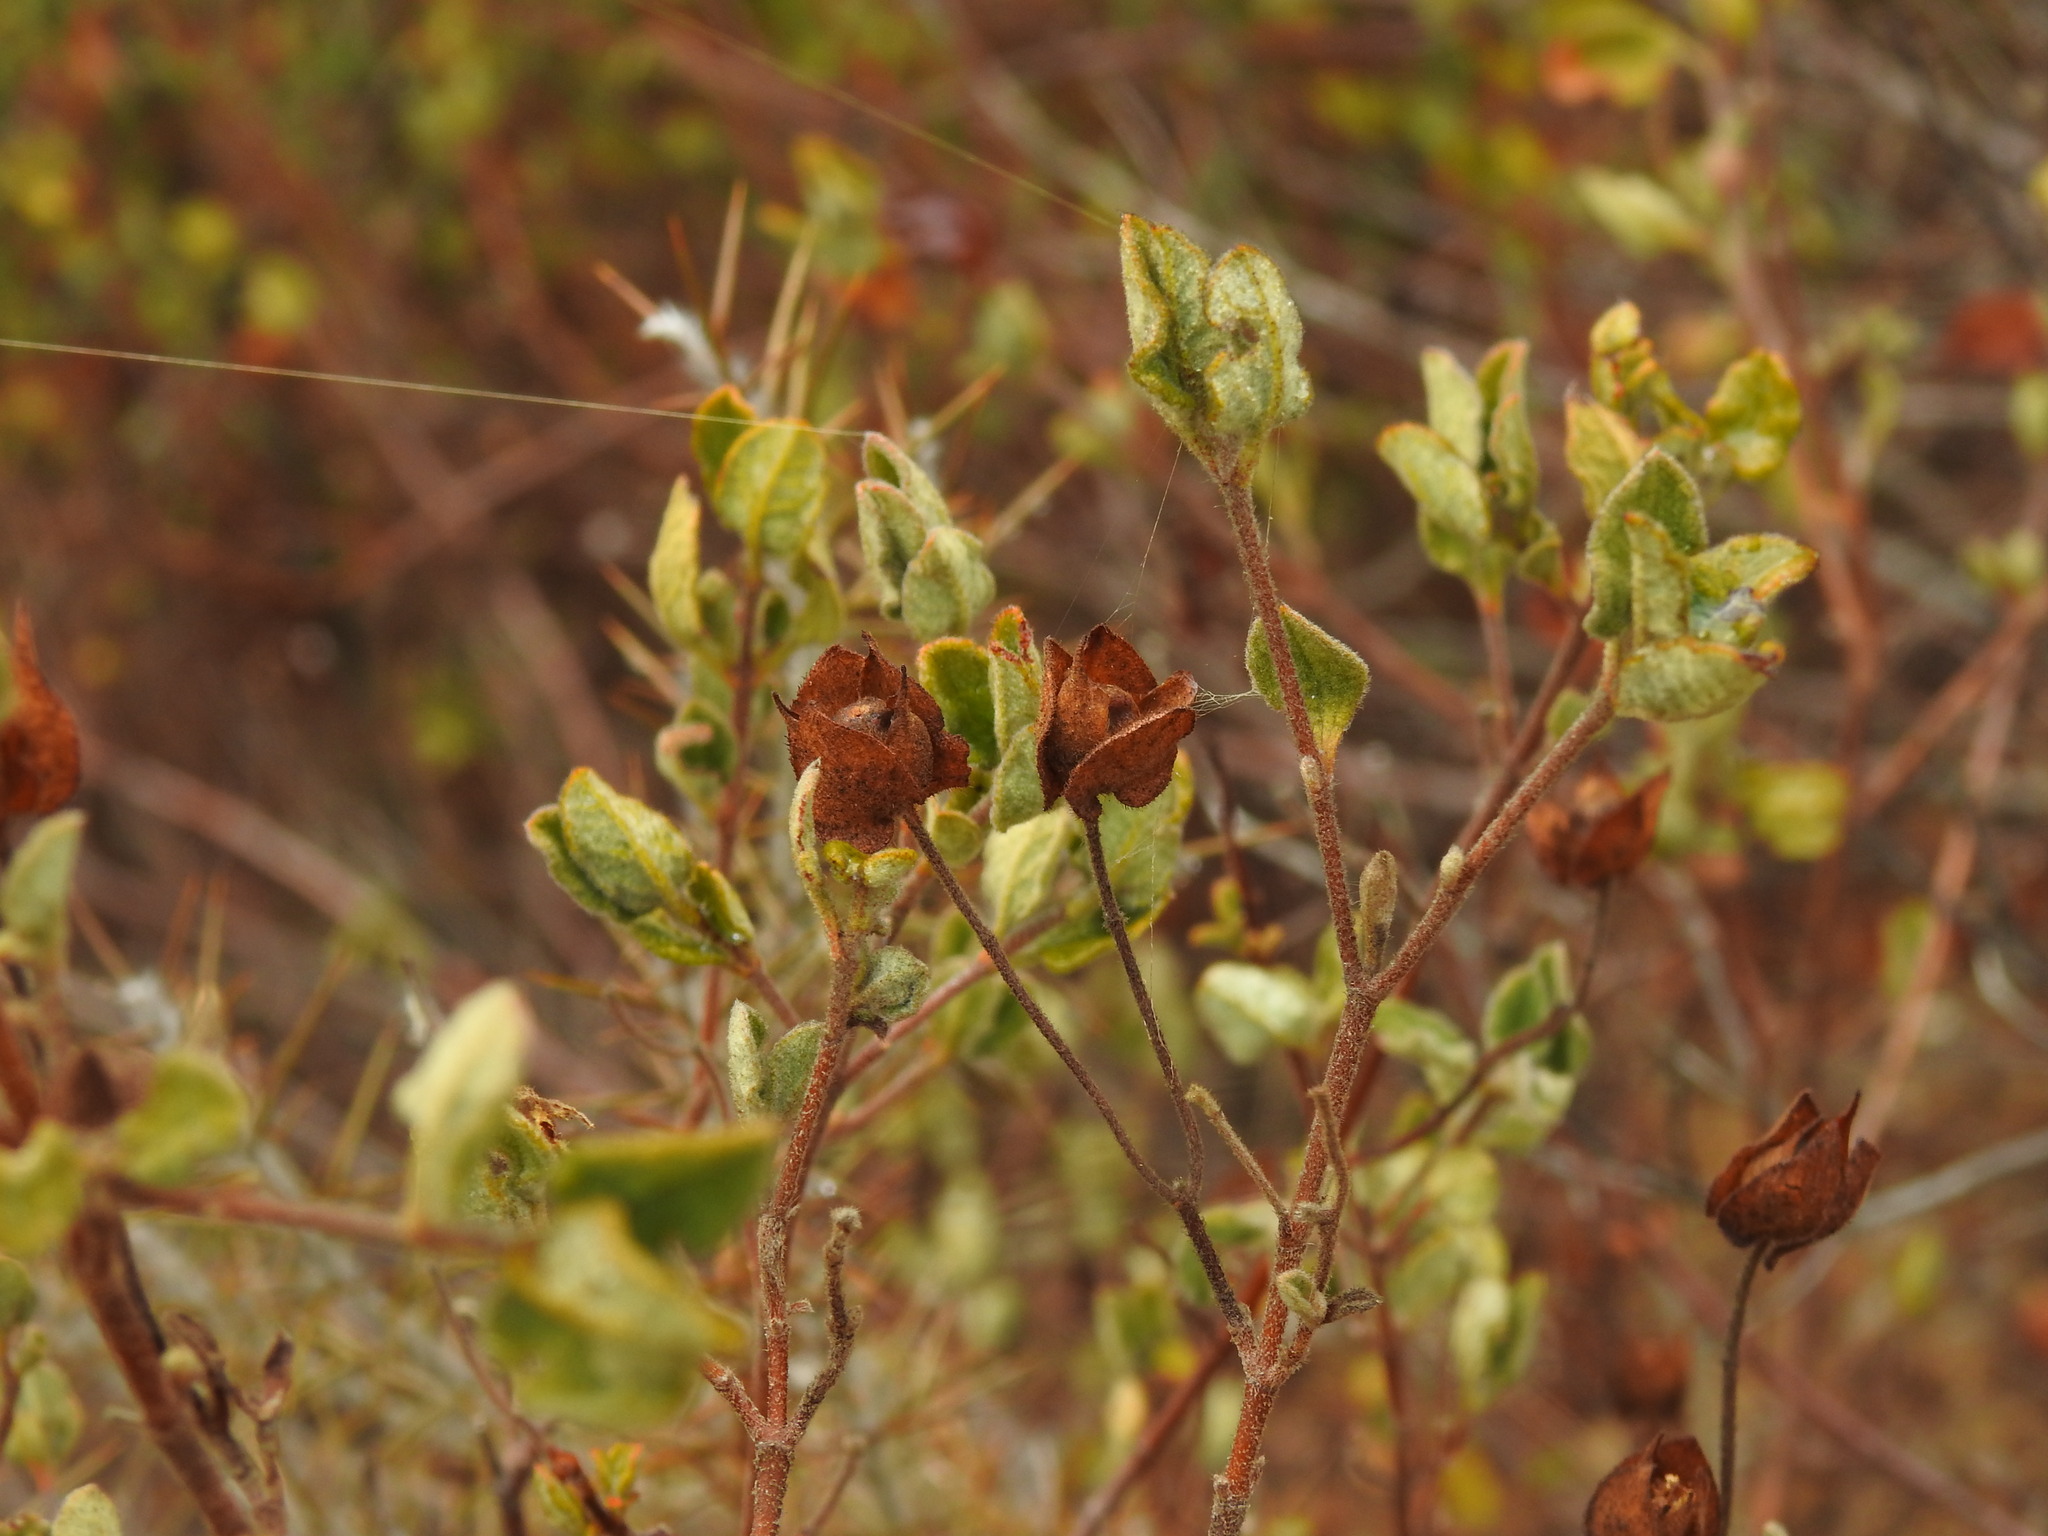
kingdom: Plantae
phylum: Tracheophyta
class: Magnoliopsida
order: Malvales
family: Cistaceae
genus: Cistus
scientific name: Cistus salviifolius
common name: Salvia cistus
